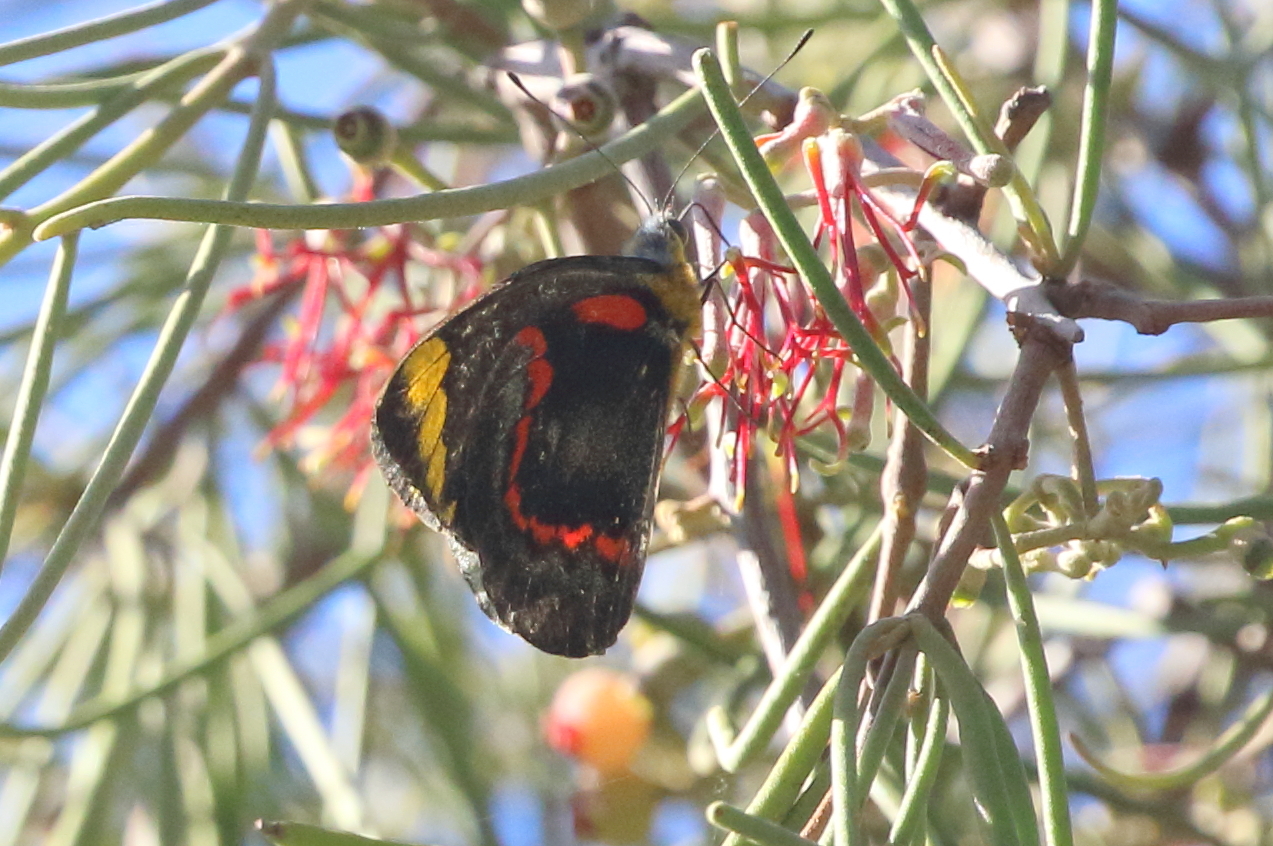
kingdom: Animalia
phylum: Arthropoda
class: Insecta
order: Lepidoptera
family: Pieridae
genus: Delias
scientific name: Delias nigrina
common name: Black jezebel
